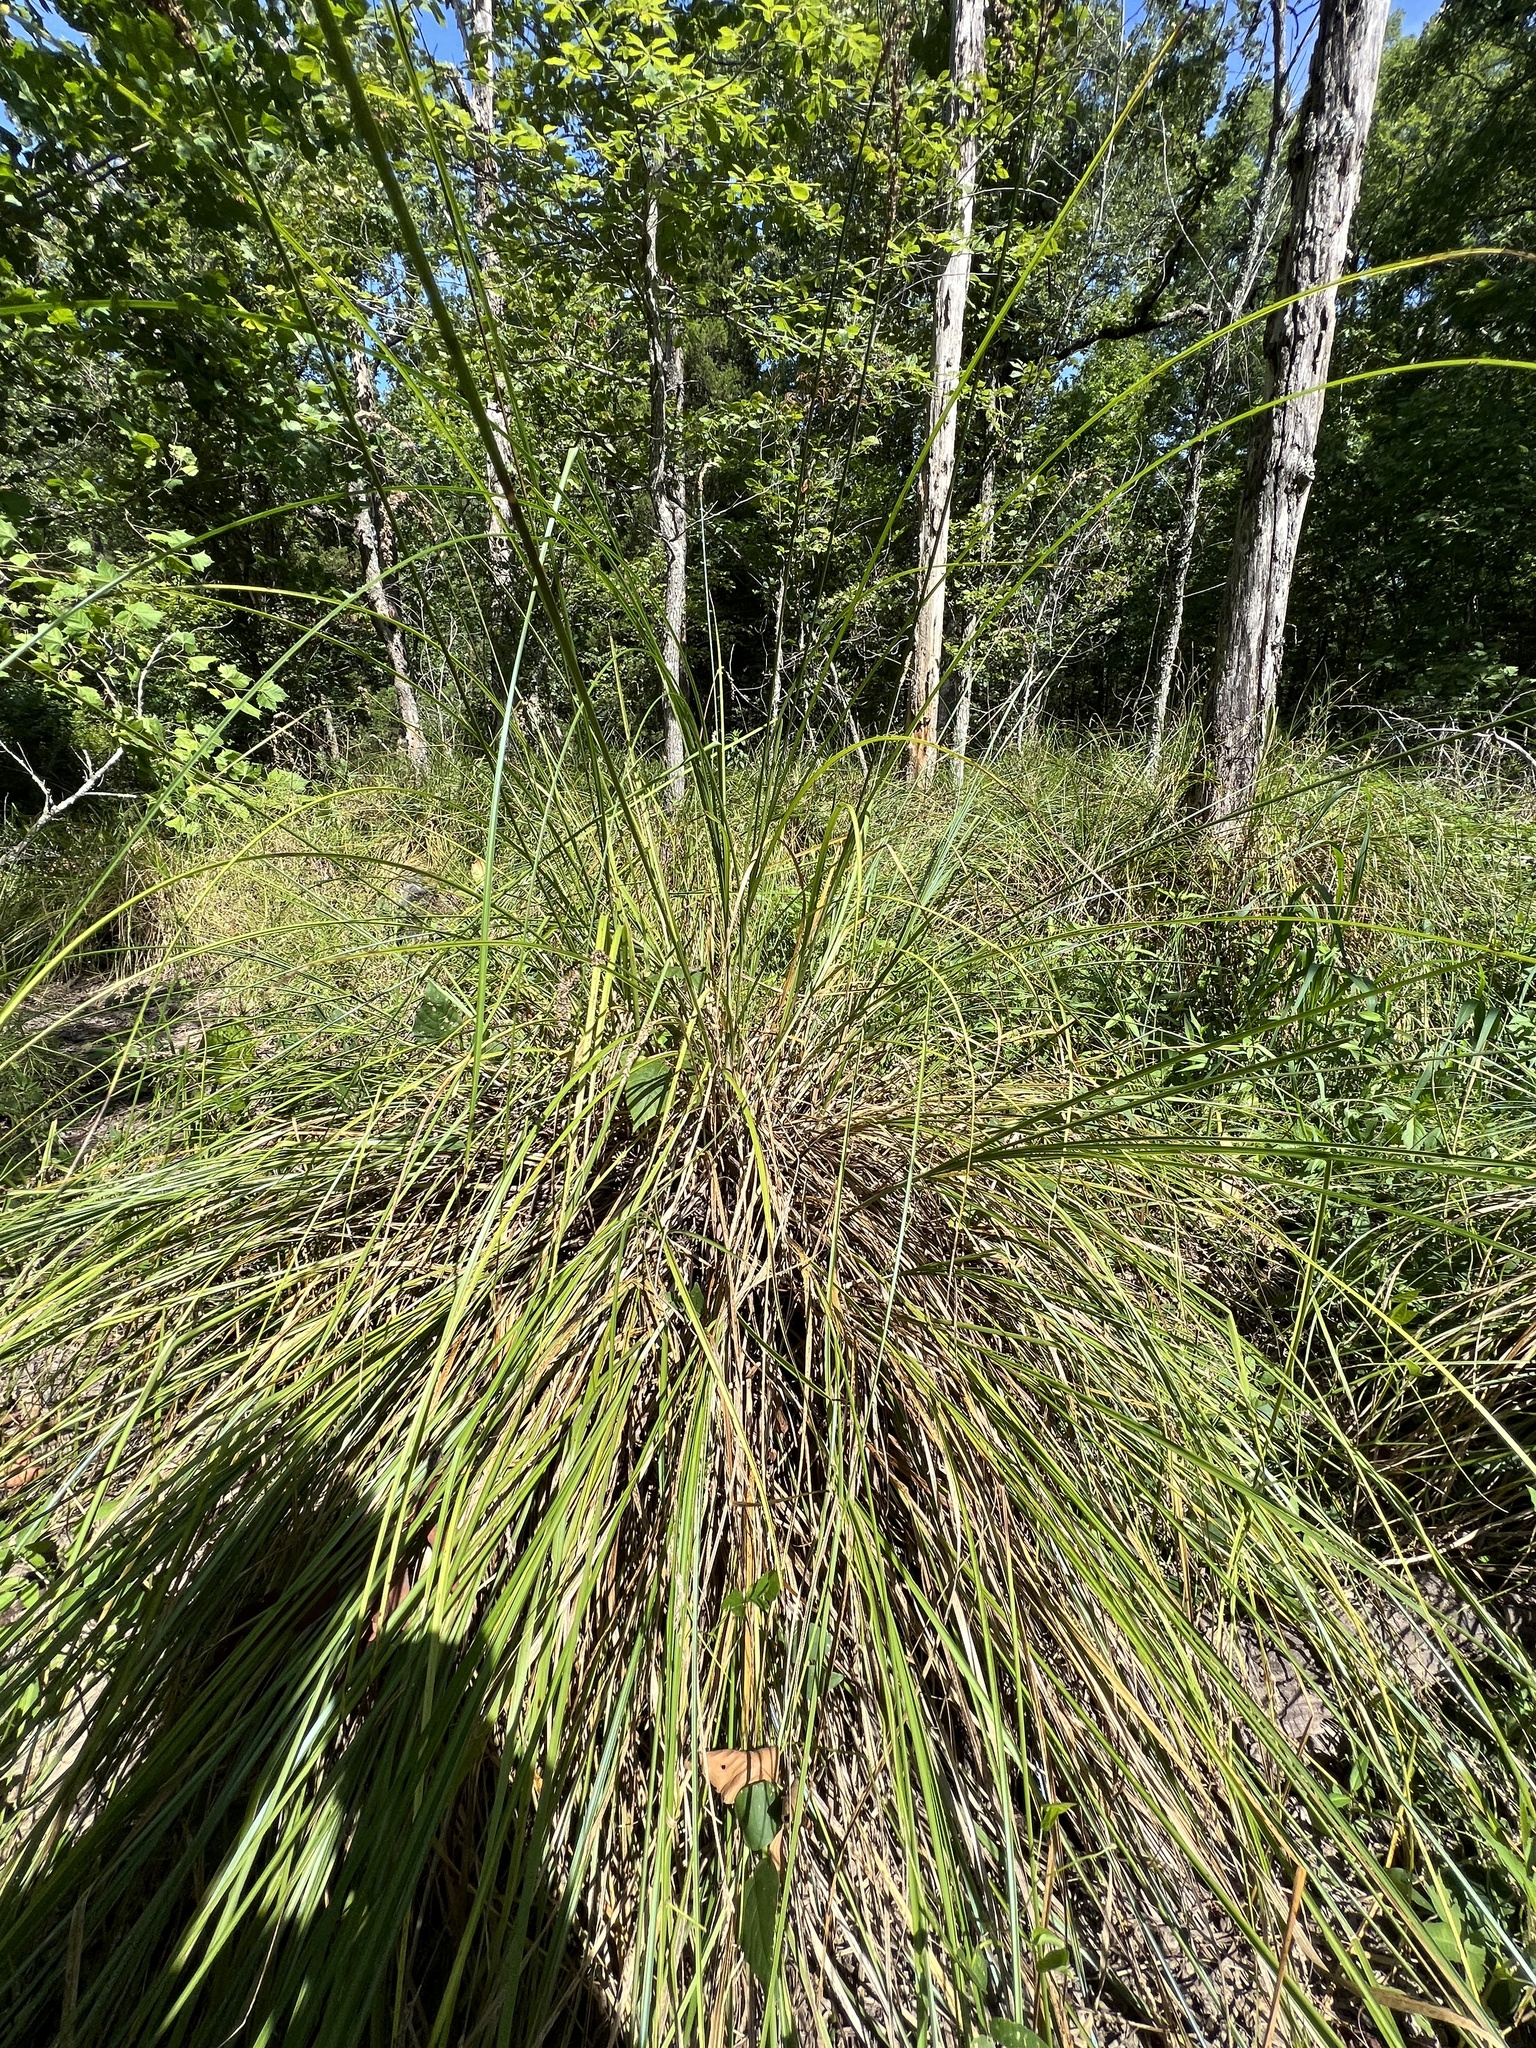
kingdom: Plantae
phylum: Tracheophyta
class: Liliopsida
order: Poales
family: Cyperaceae
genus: Carex
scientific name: Carex decomposita
